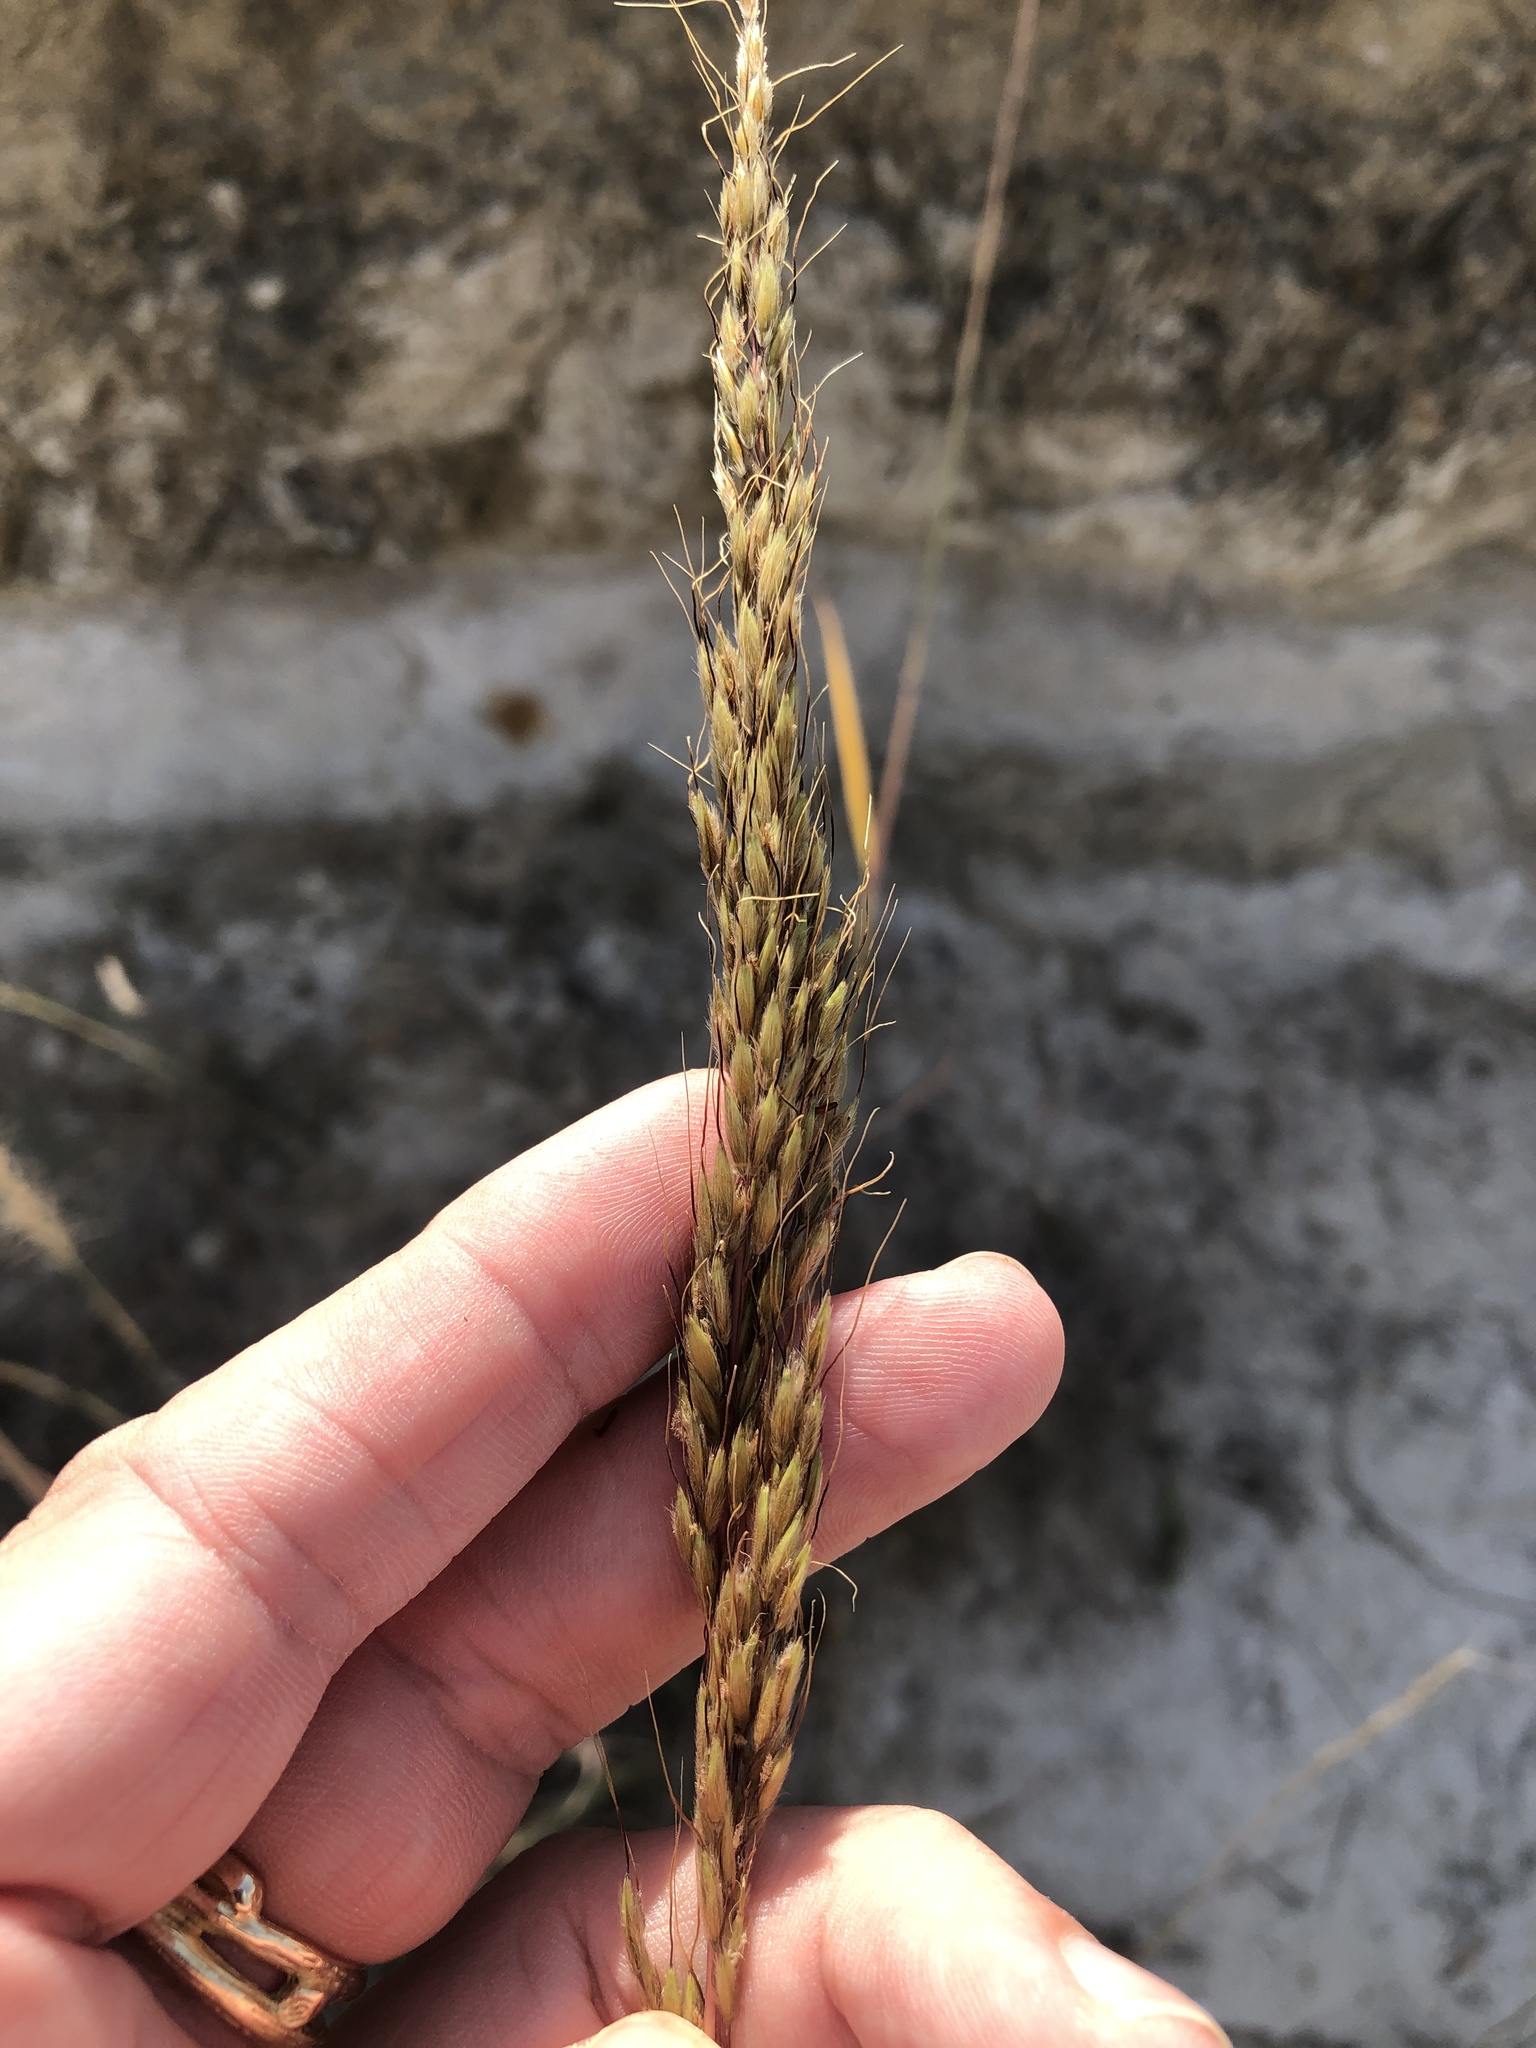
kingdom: Plantae
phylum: Tracheophyta
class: Liliopsida
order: Poales
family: Poaceae
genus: Sorghastrum
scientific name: Sorghastrum nutans
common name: Indian grass
